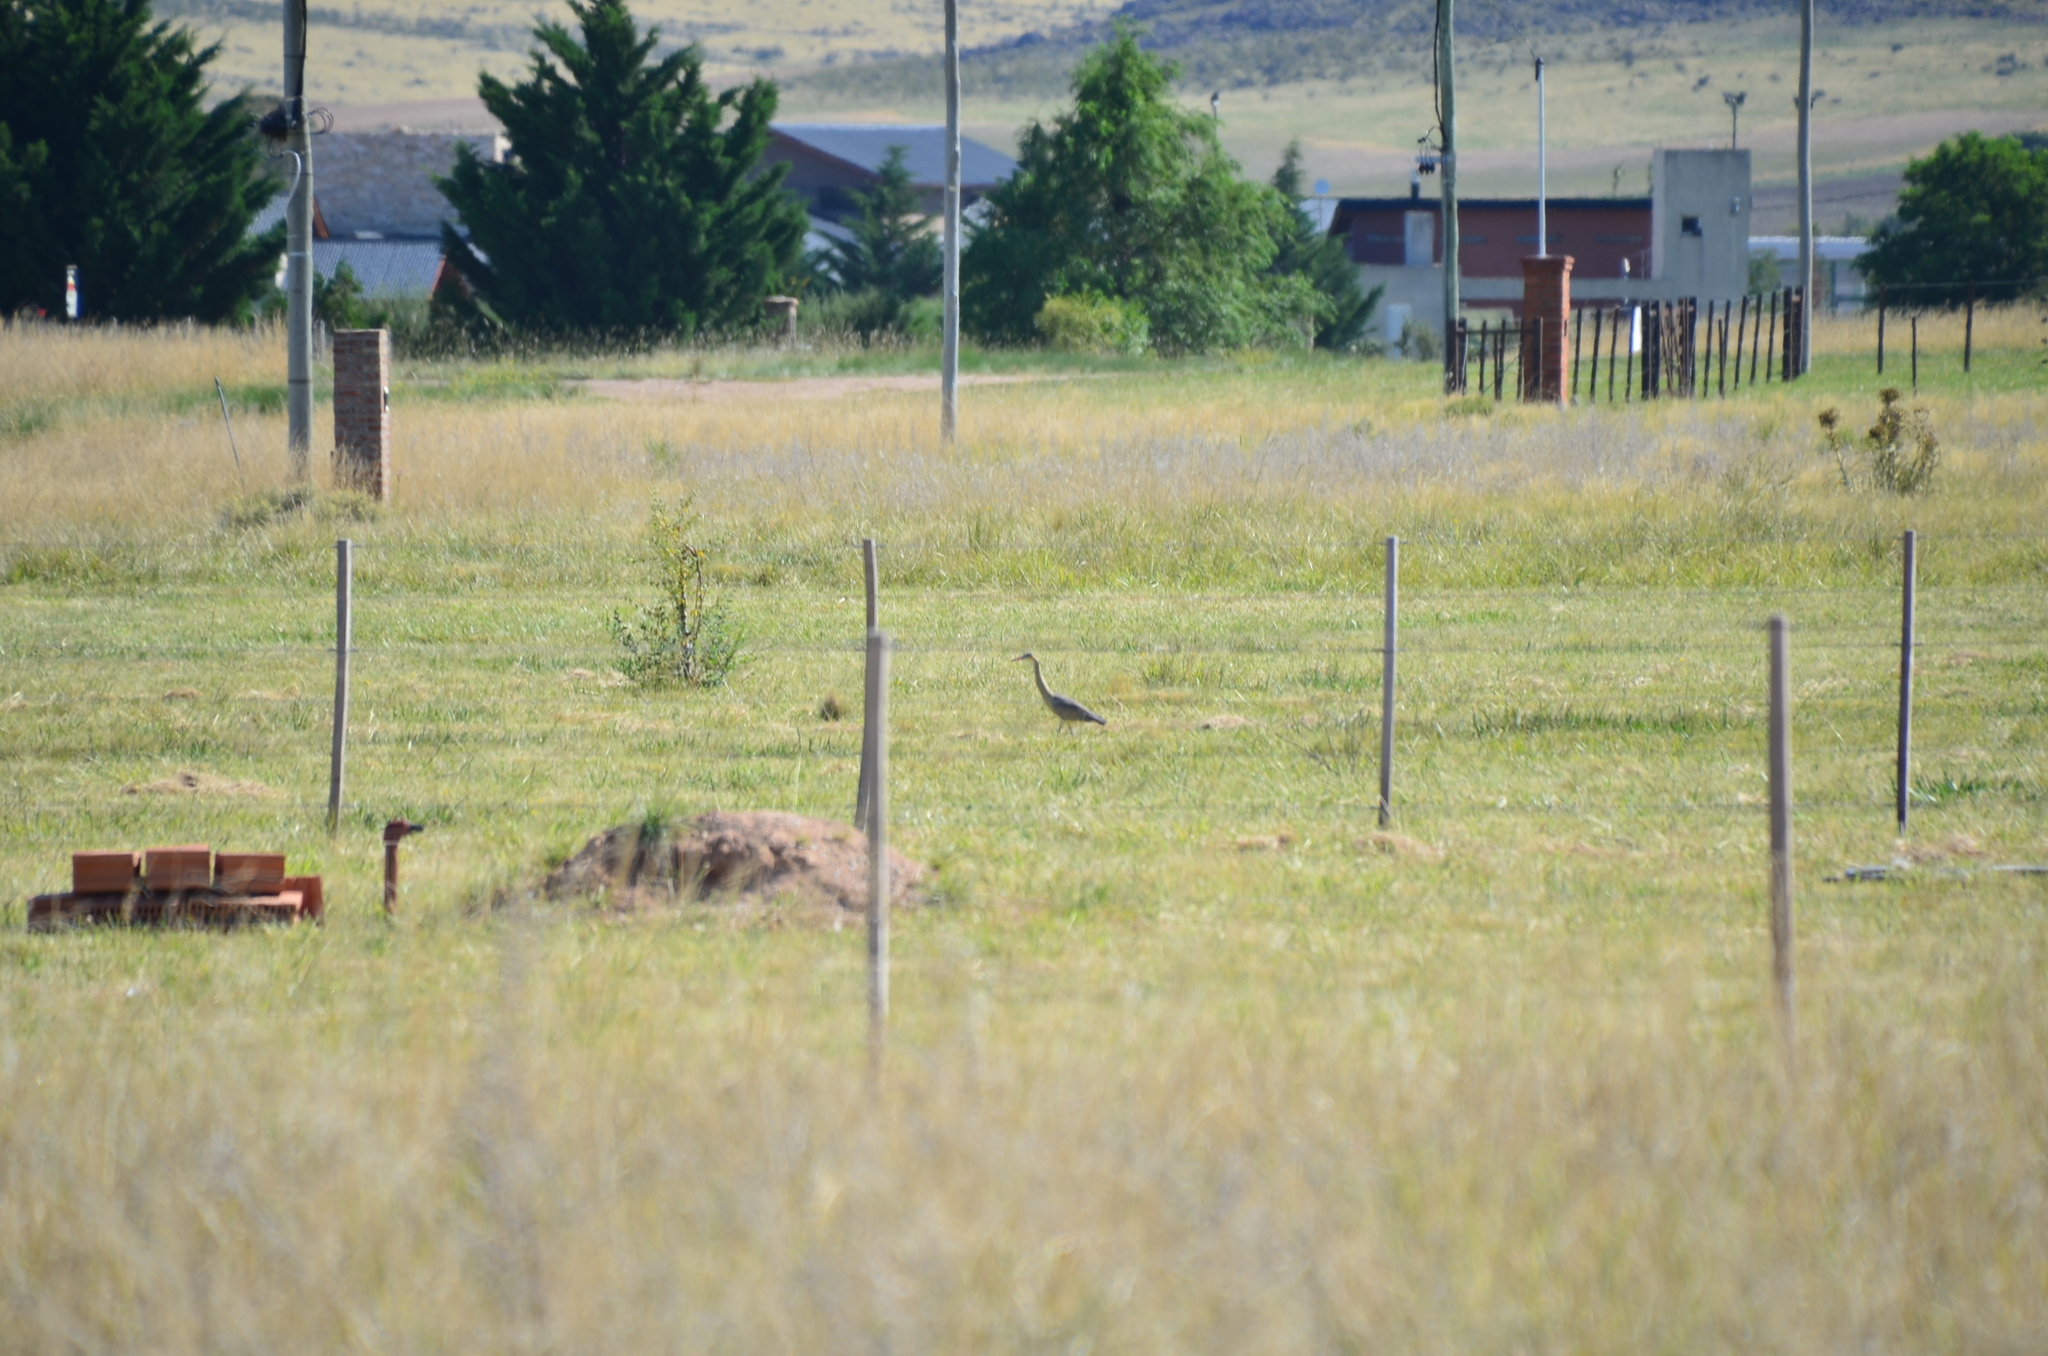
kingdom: Animalia
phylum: Chordata
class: Aves
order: Pelecaniformes
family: Ardeidae
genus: Syrigma
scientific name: Syrigma sibilatrix
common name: Whistling heron
